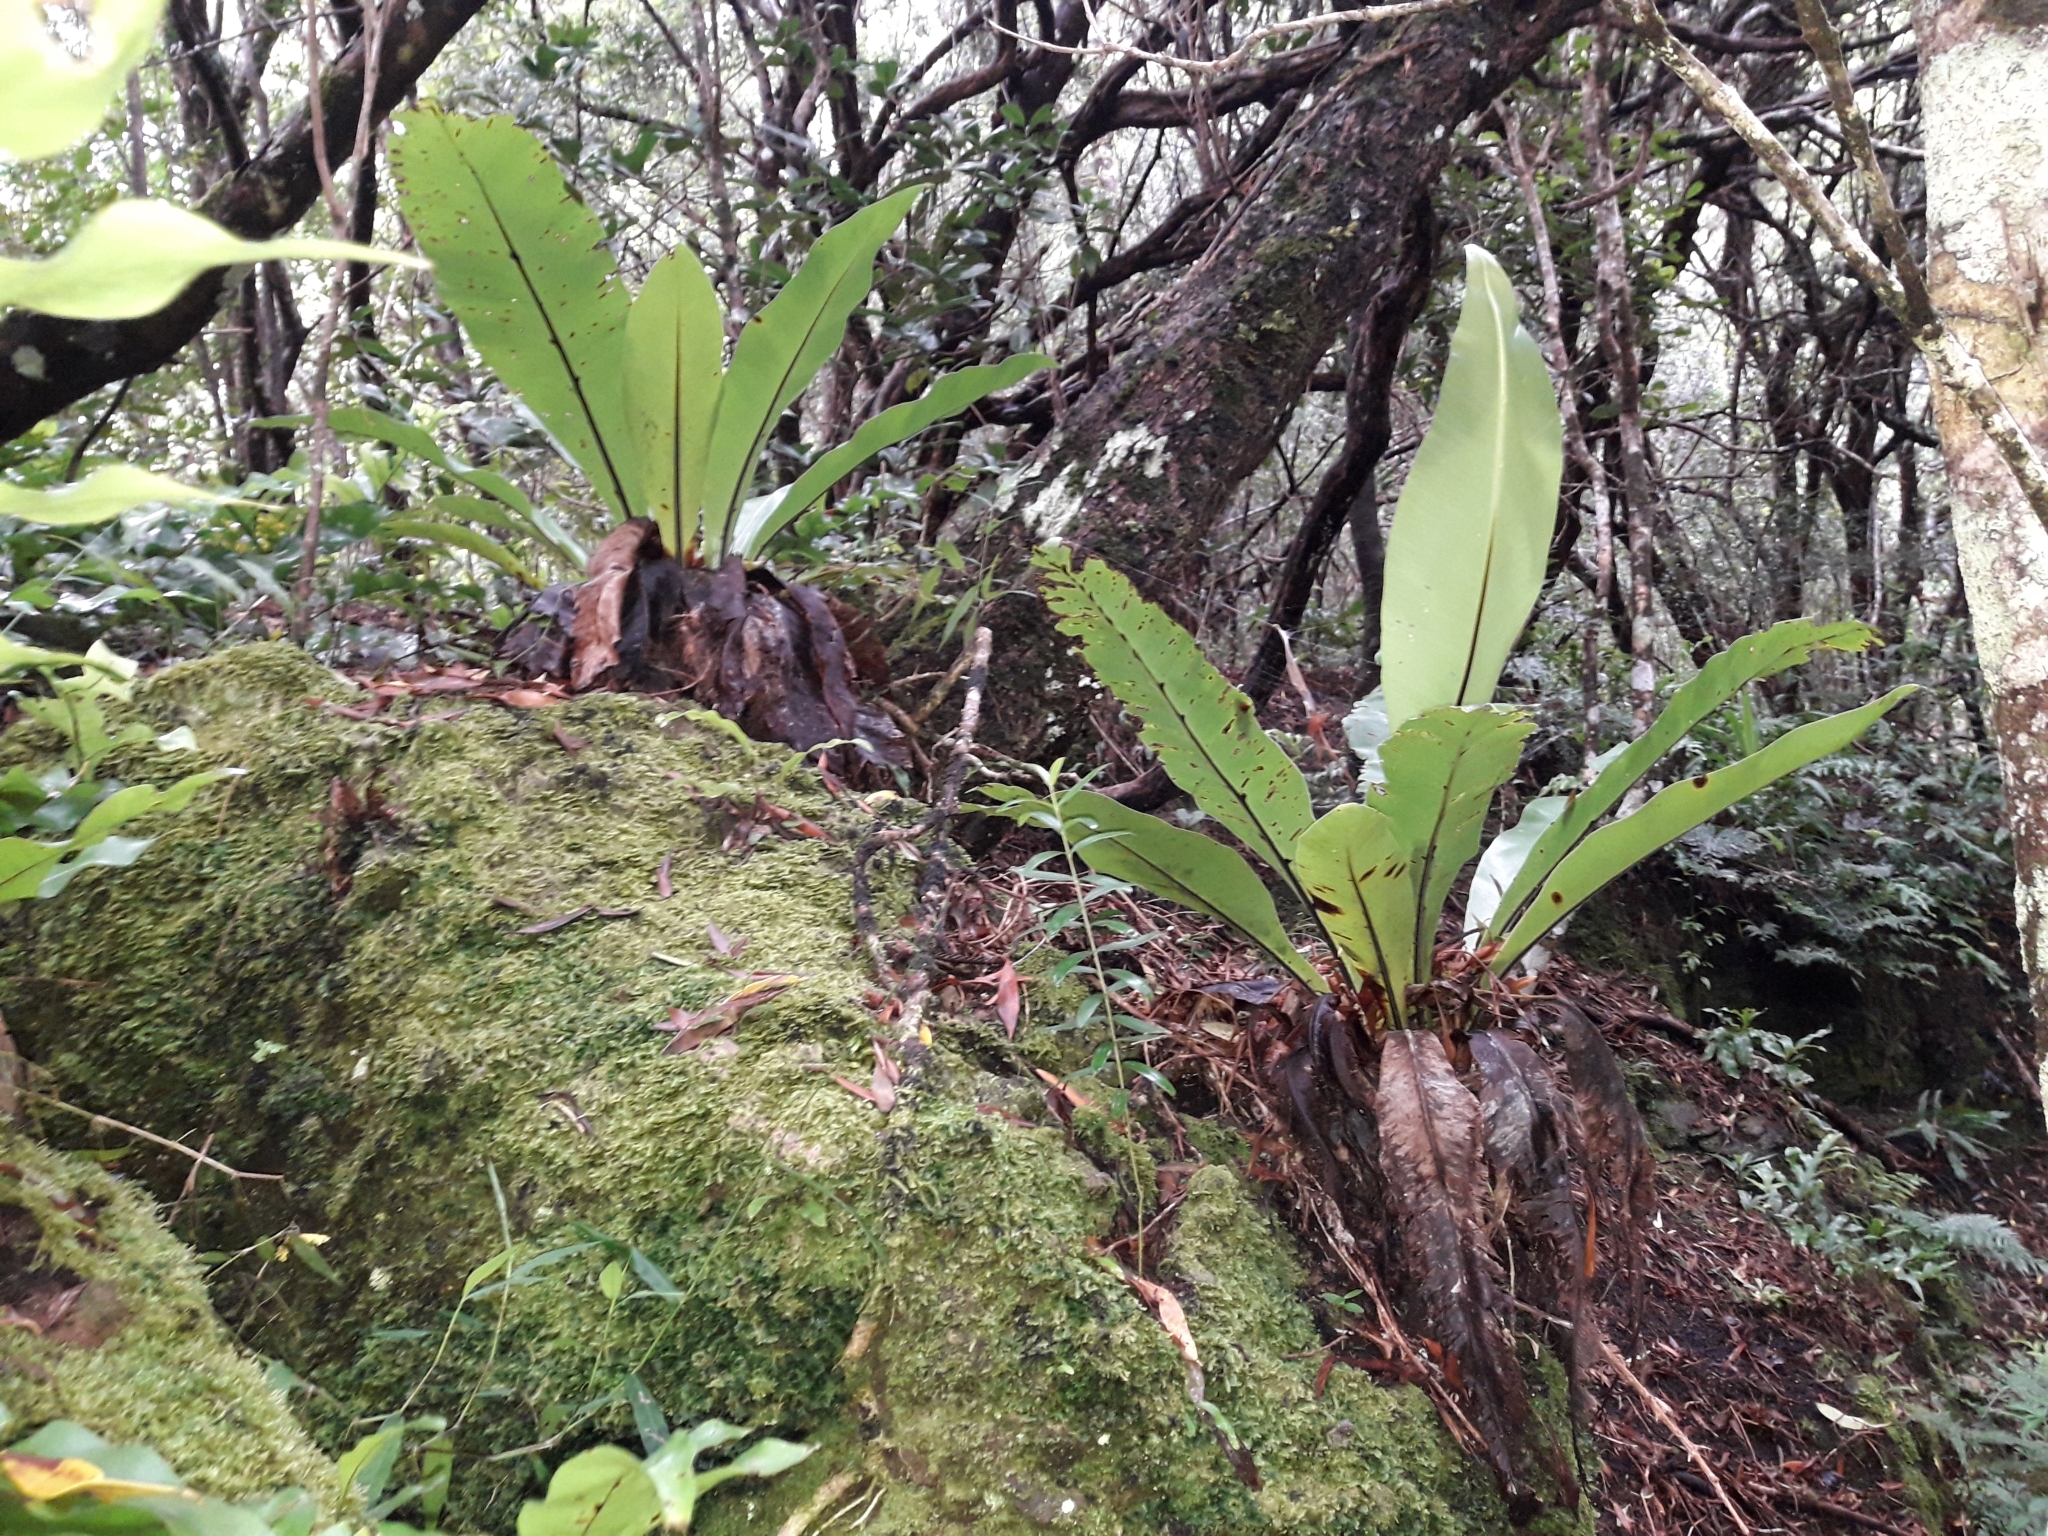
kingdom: Plantae
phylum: Tracheophyta
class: Polypodiopsida
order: Polypodiales
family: Aspleniaceae
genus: Asplenium
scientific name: Asplenium australasicum
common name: Bird's-nest fern
